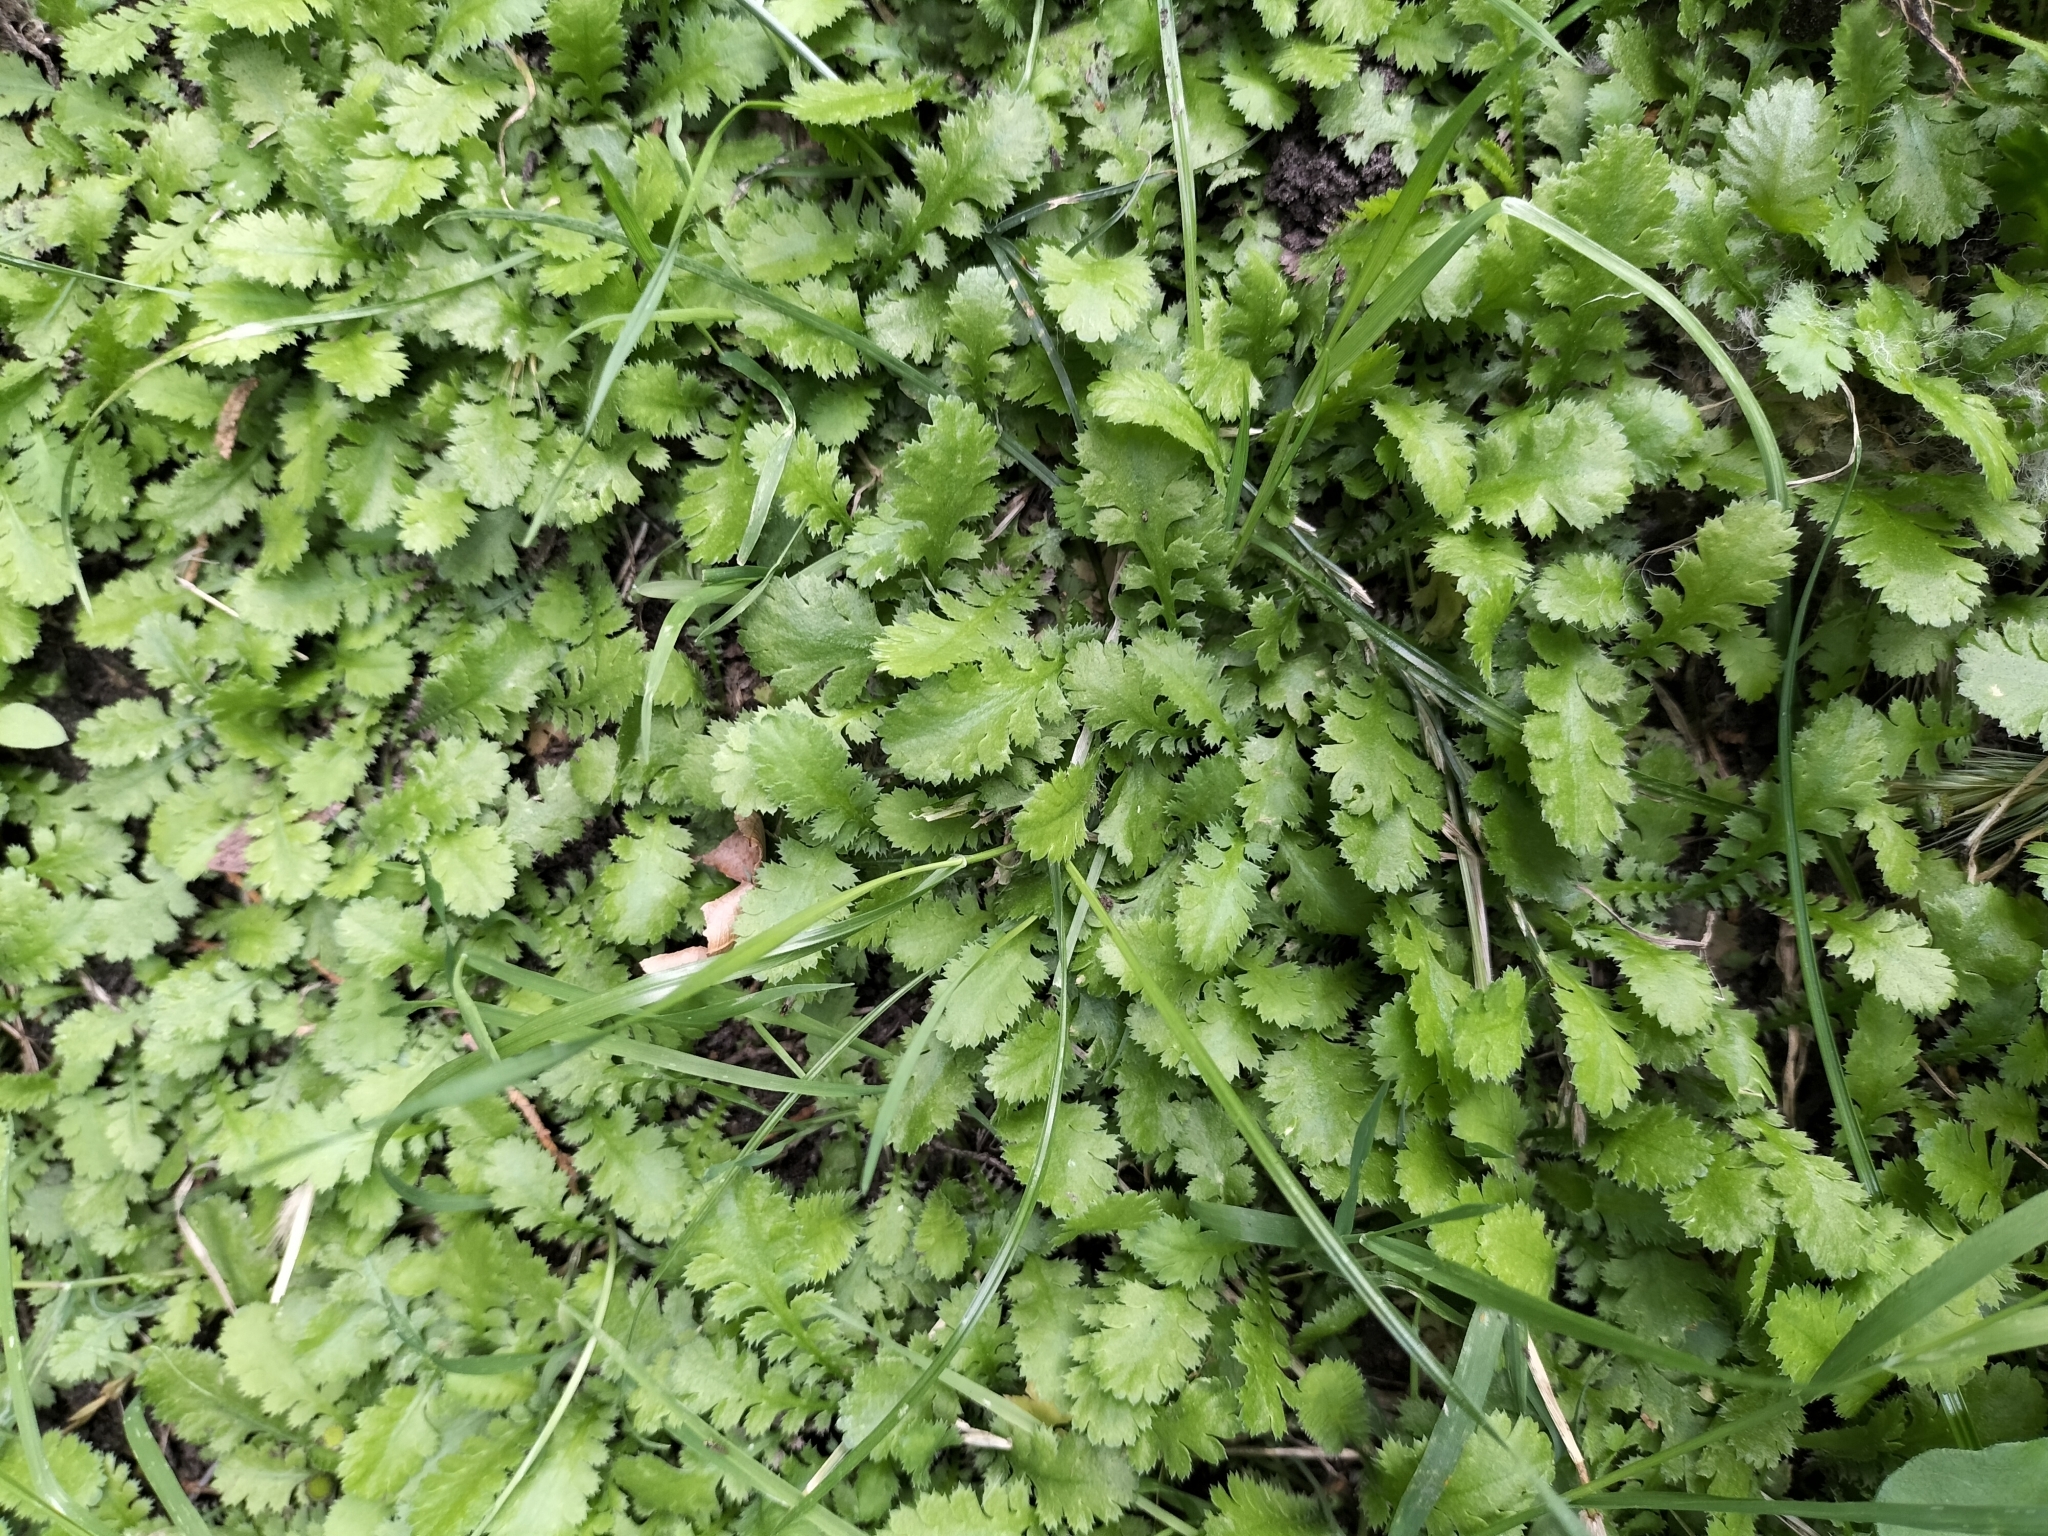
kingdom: Plantae
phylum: Tracheophyta
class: Magnoliopsida
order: Asterales
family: Asteraceae
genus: Leptinella
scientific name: Leptinella dioica
